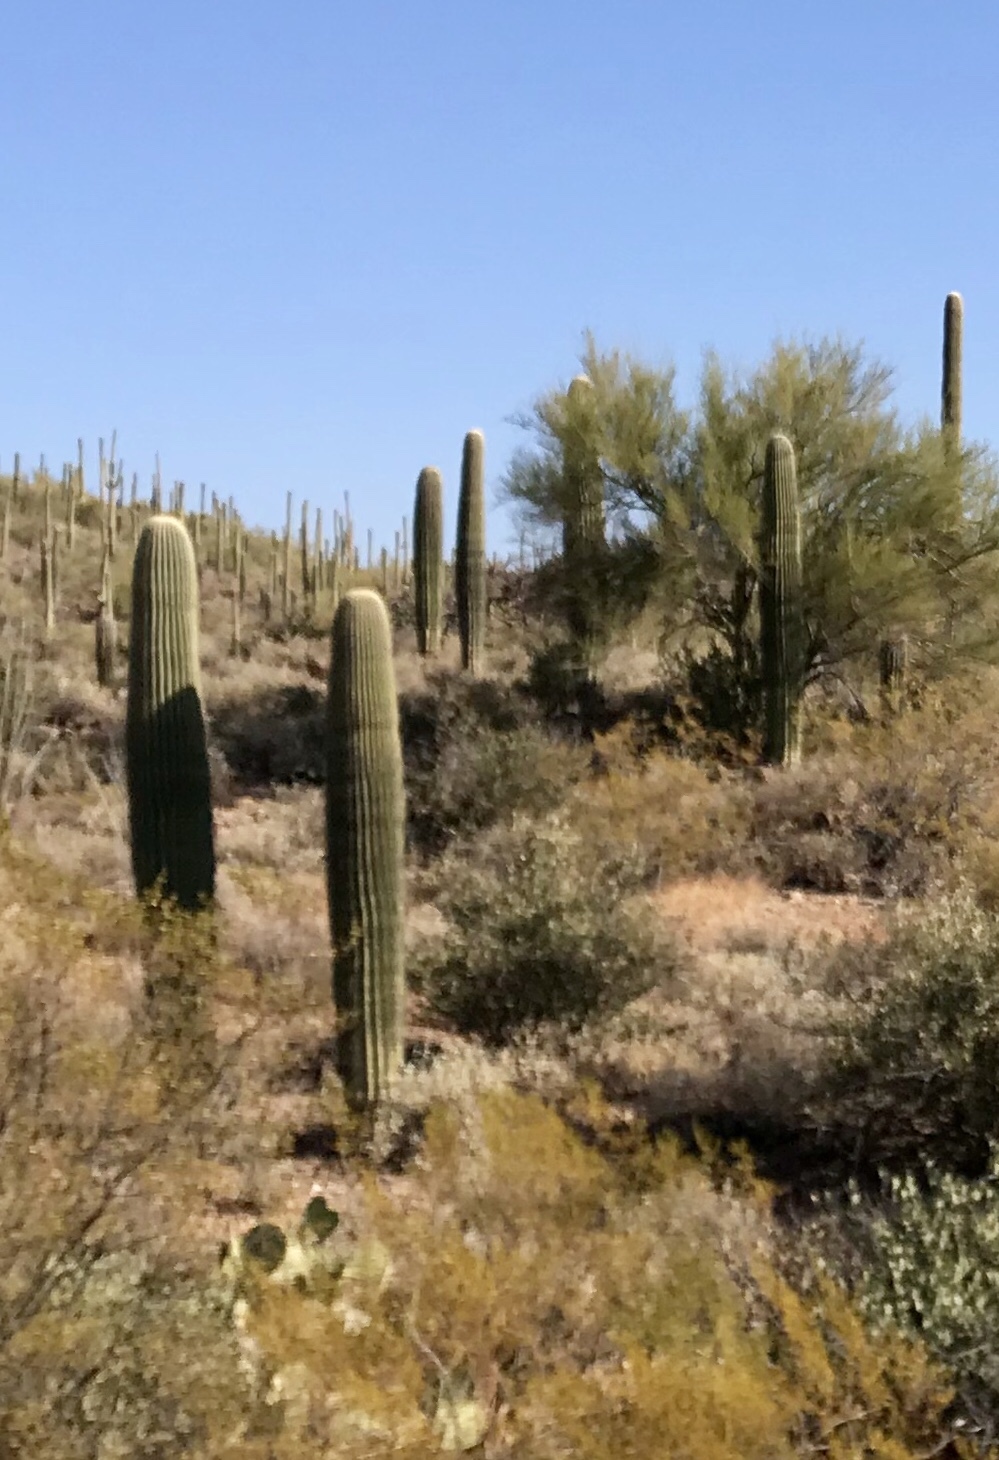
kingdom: Plantae
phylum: Tracheophyta
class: Magnoliopsida
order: Caryophyllales
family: Cactaceae
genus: Carnegiea
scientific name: Carnegiea gigantea
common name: Saguaro
